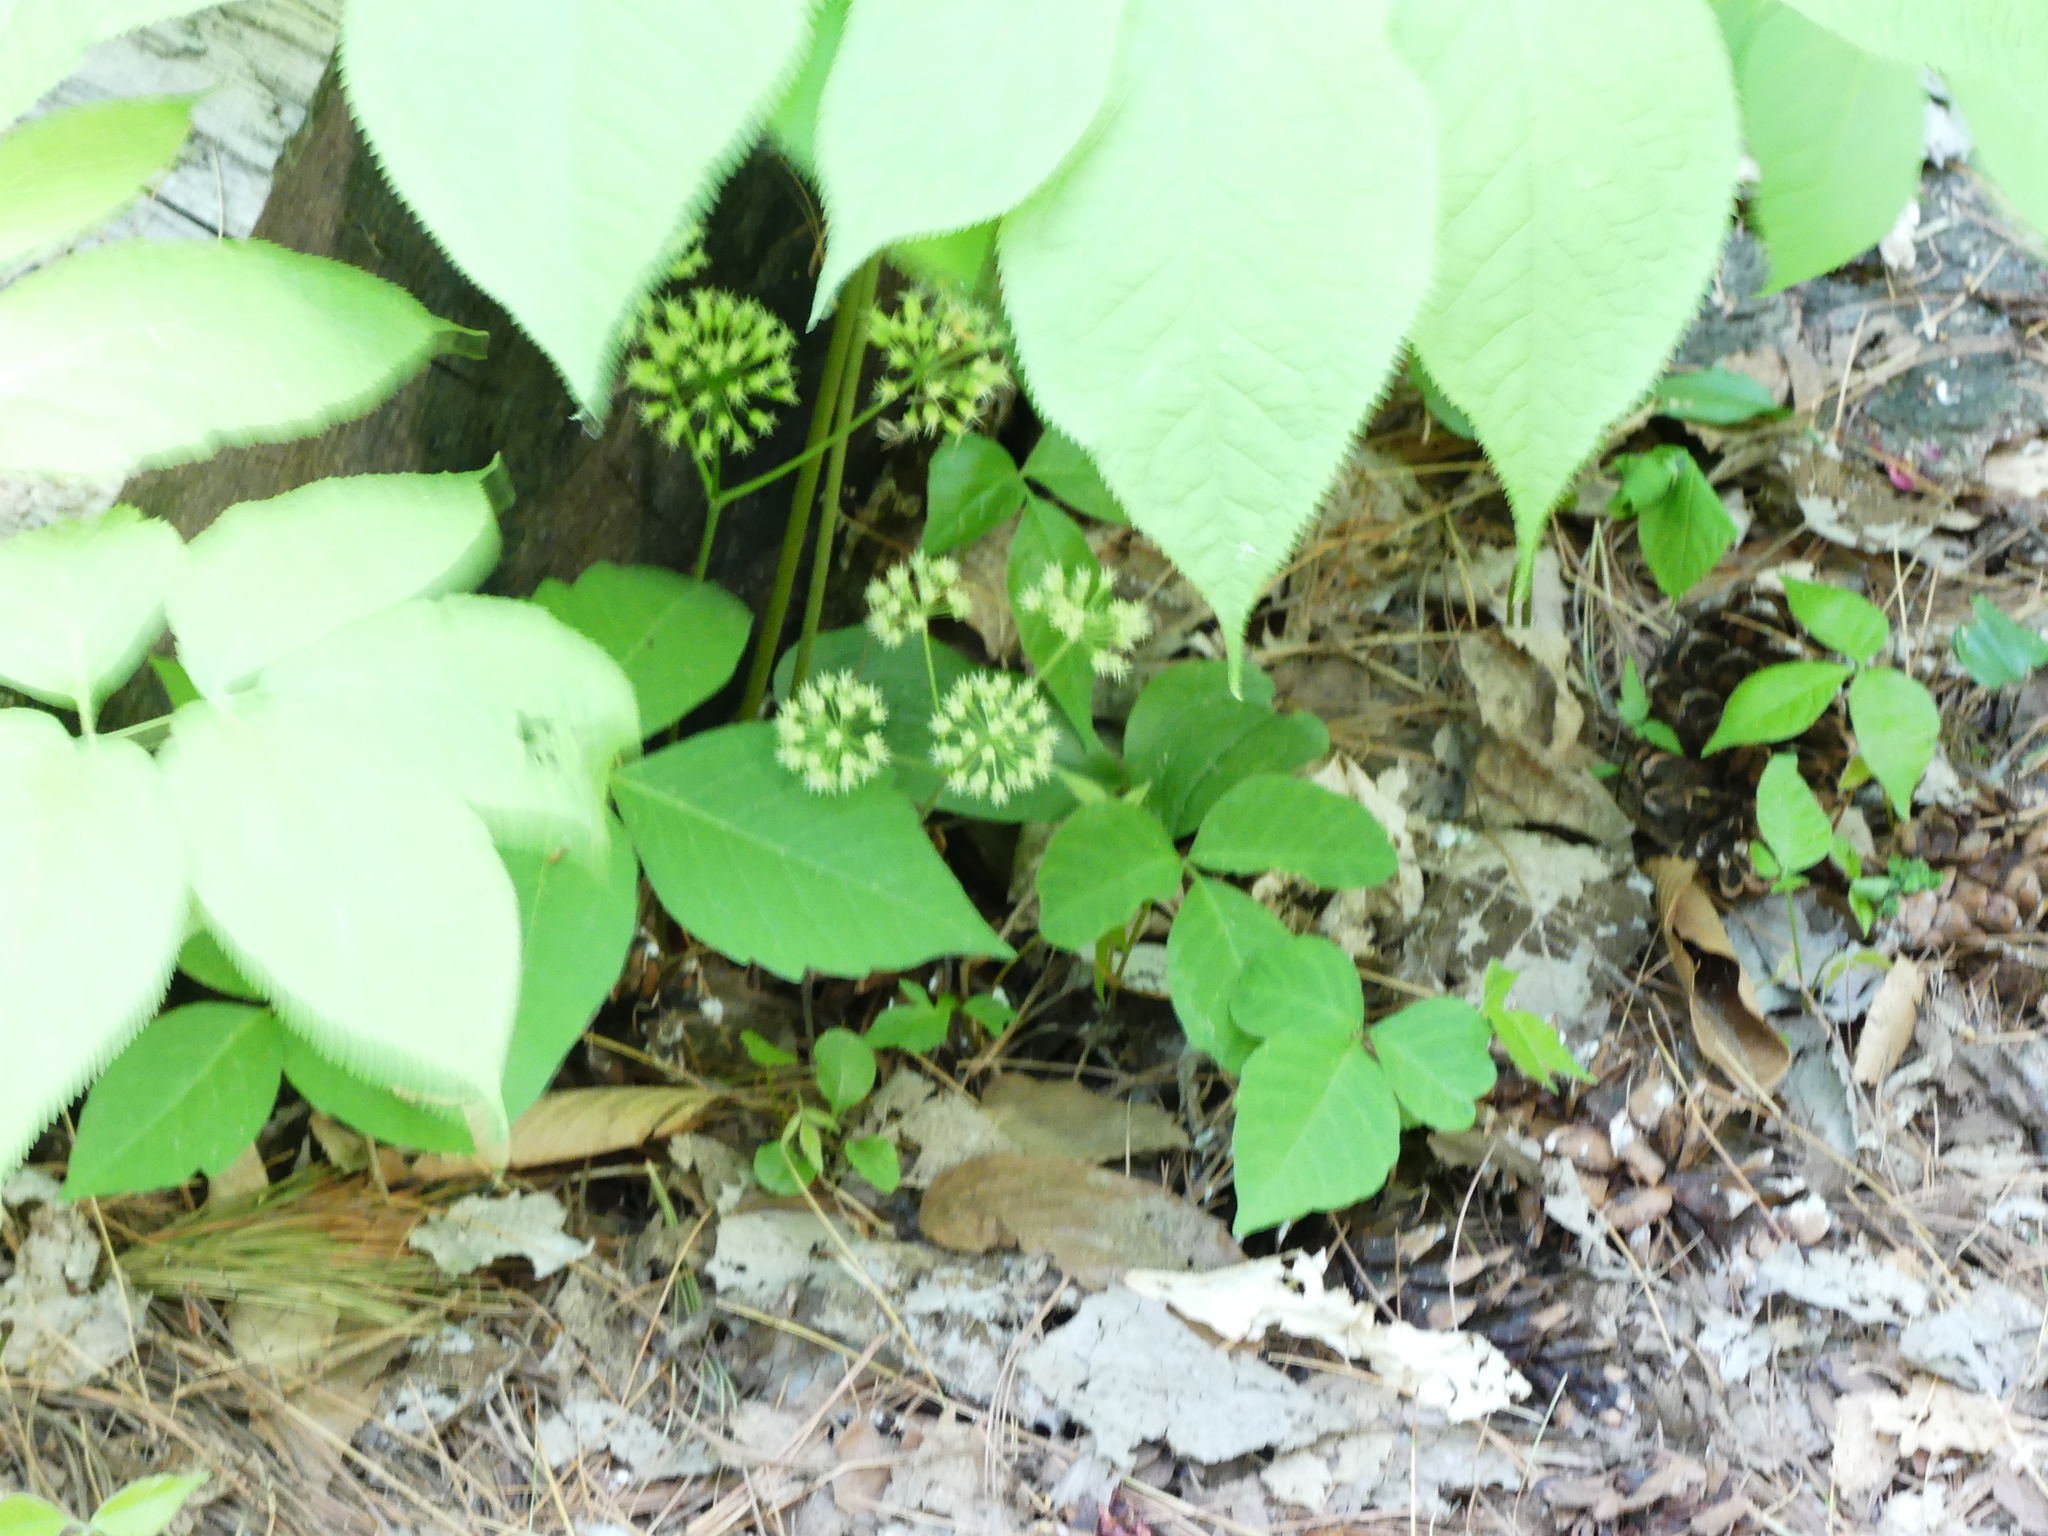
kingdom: Plantae
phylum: Tracheophyta
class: Magnoliopsida
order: Apiales
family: Araliaceae
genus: Aralia
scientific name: Aralia nudicaulis
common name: Wild sarsaparilla
